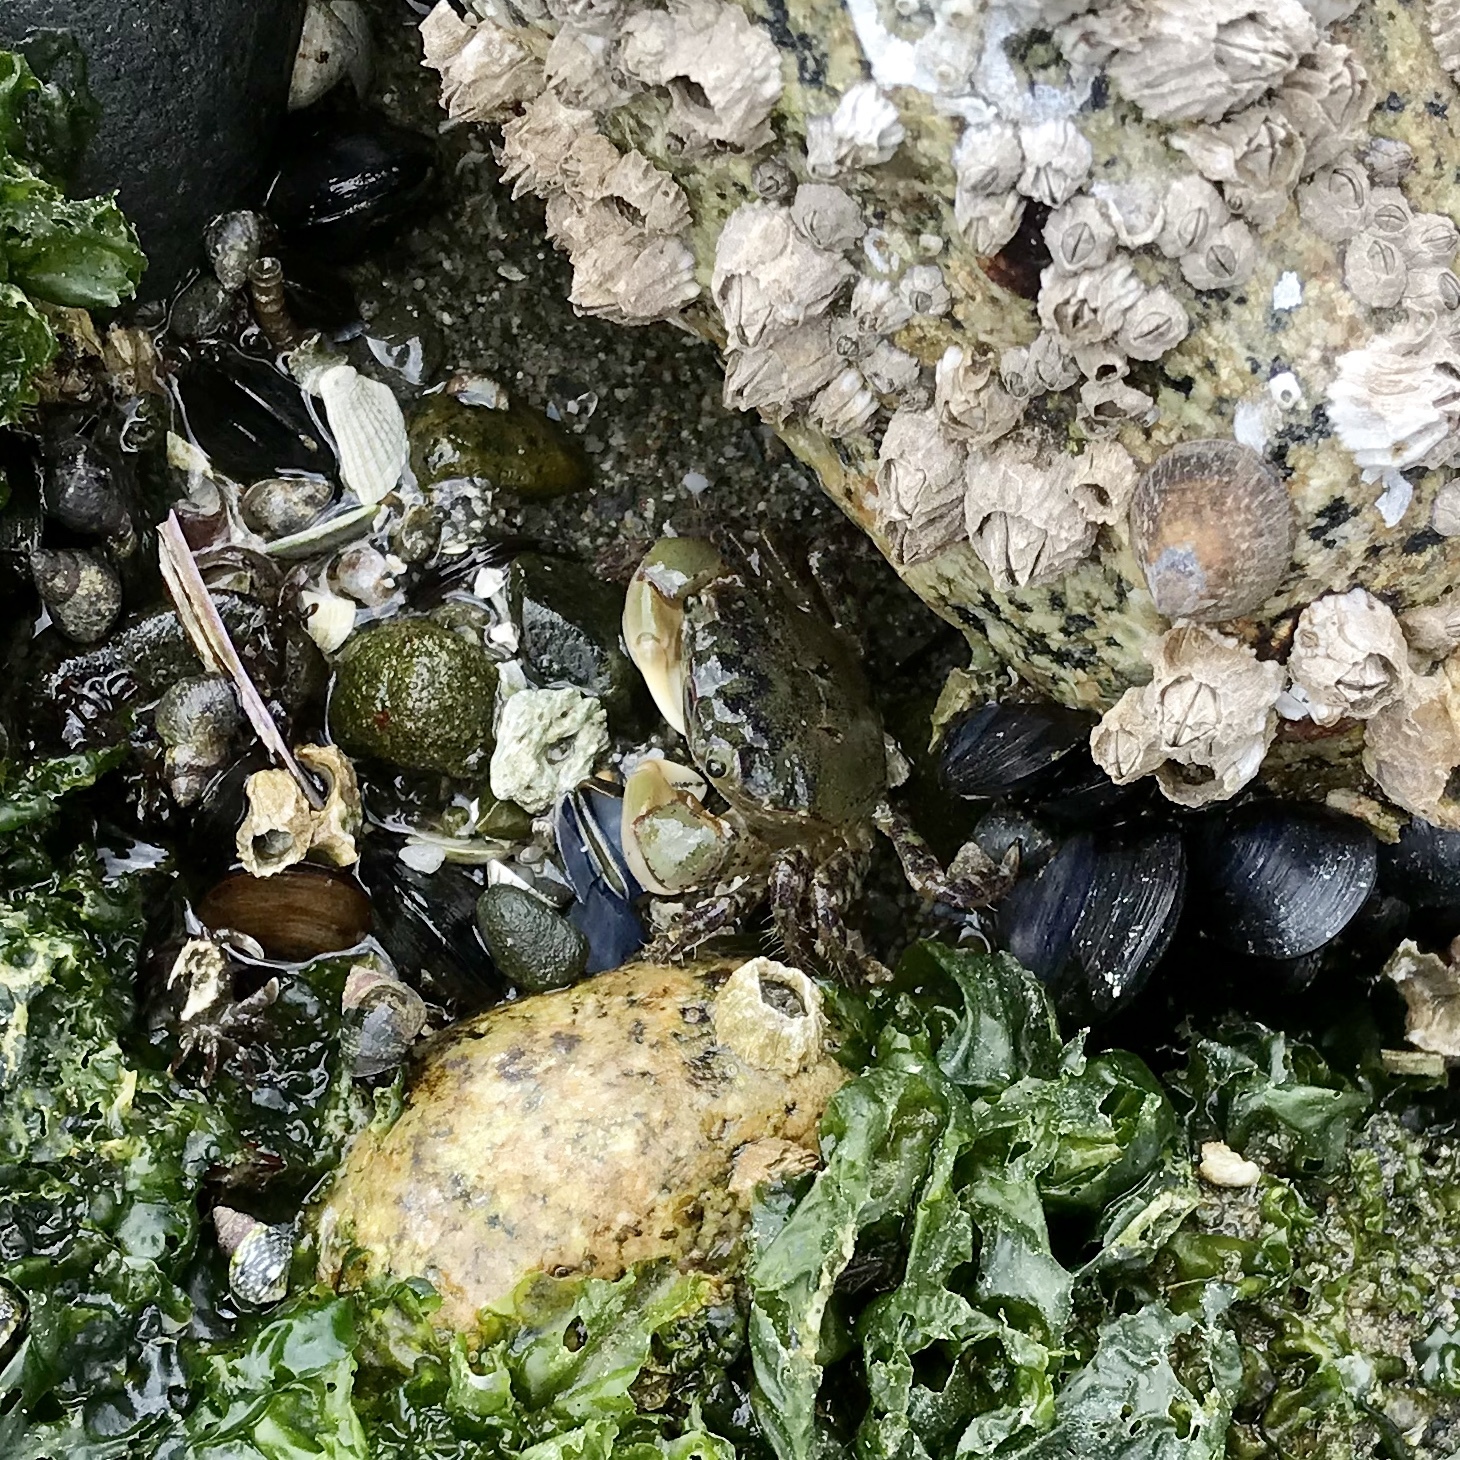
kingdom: Animalia
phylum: Arthropoda
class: Malacostraca
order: Decapoda
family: Varunidae
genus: Hemigrapsus
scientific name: Hemigrapsus oregonensis
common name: Yellow shore crab
